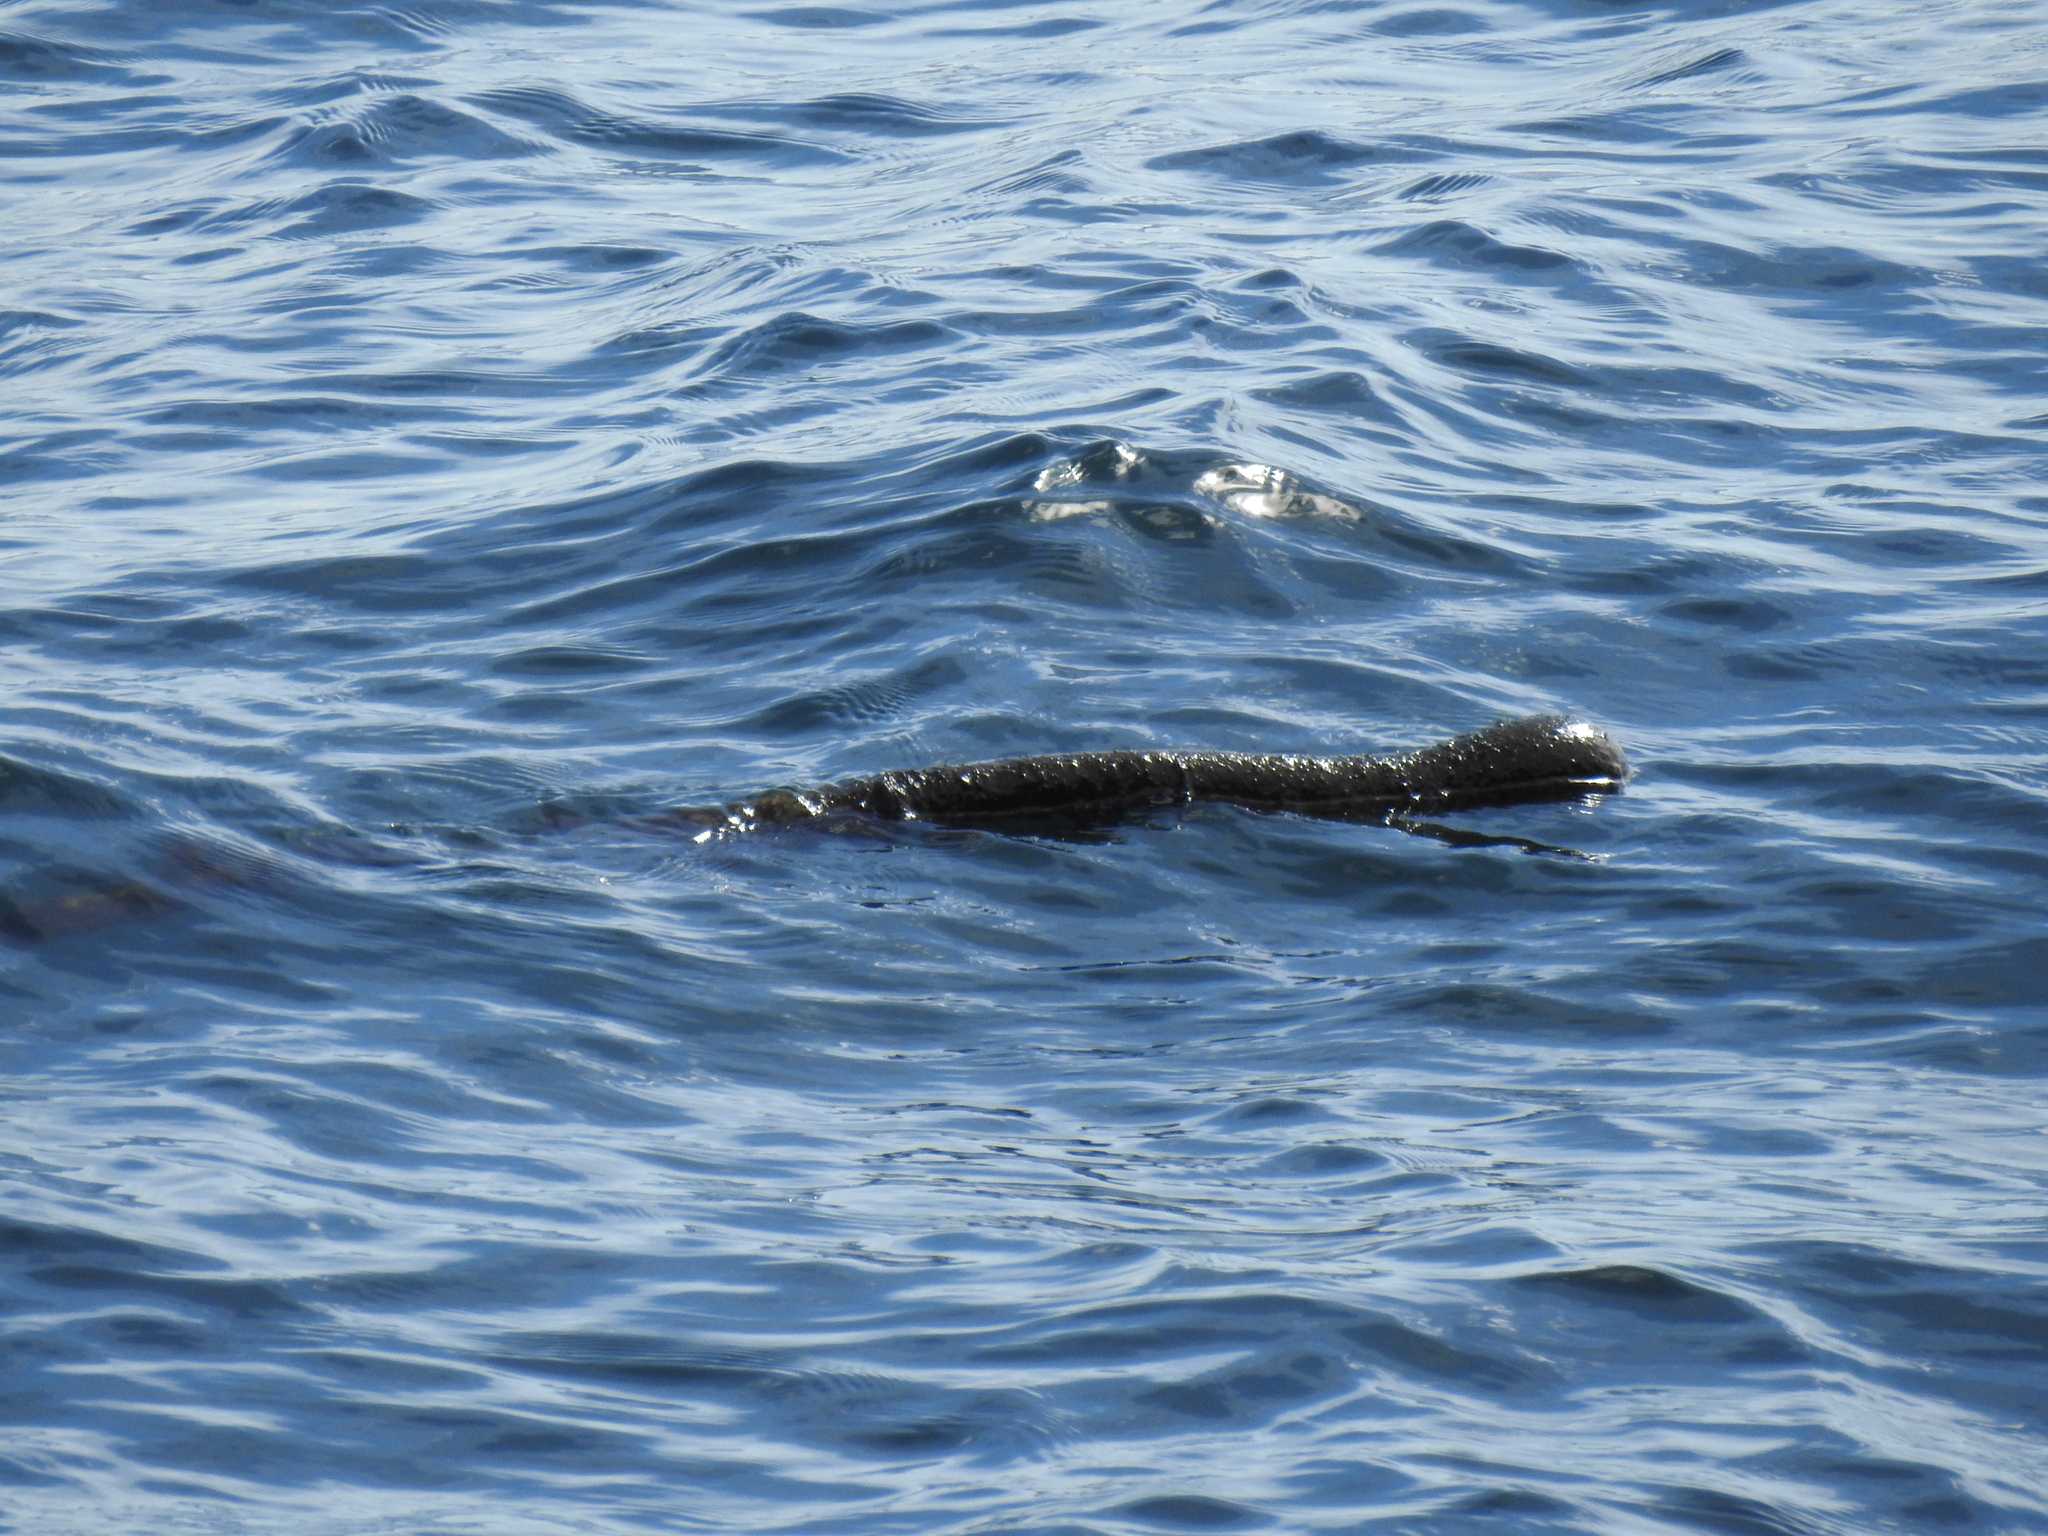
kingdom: Chromista
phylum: Ochrophyta
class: Phaeophyceae
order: Laminariales
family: Laminariaceae
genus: Nereocystis
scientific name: Nereocystis luetkeana
